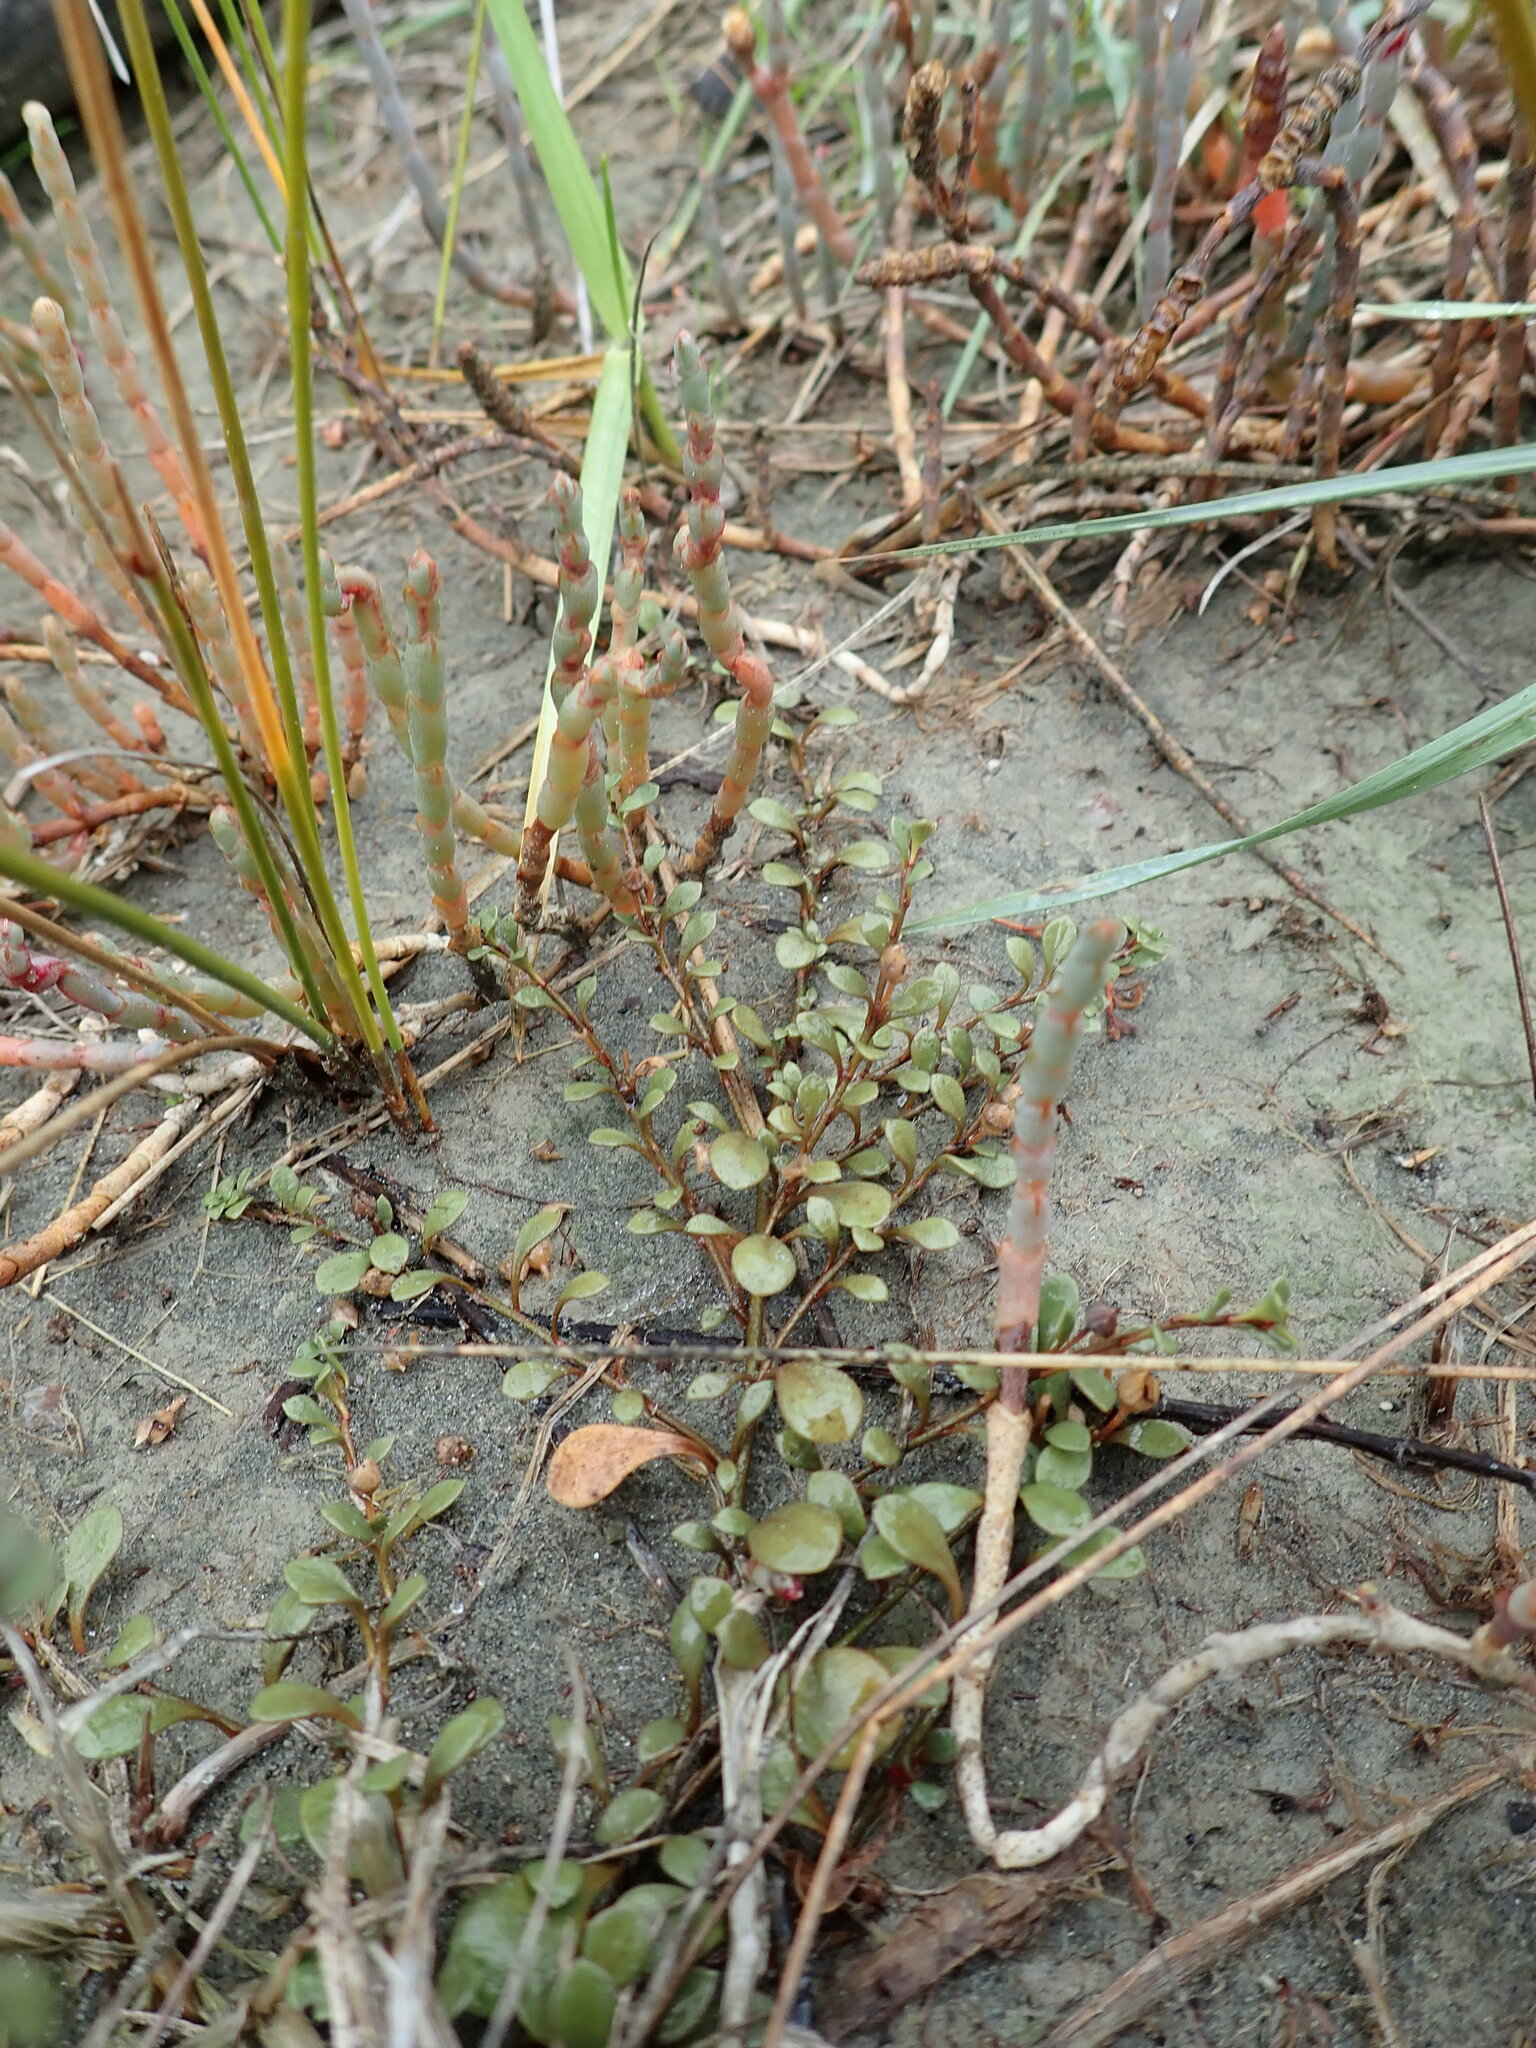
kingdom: Plantae
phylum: Tracheophyta
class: Magnoliopsida
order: Ericales
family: Primulaceae
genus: Samolus
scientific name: Samolus repens
